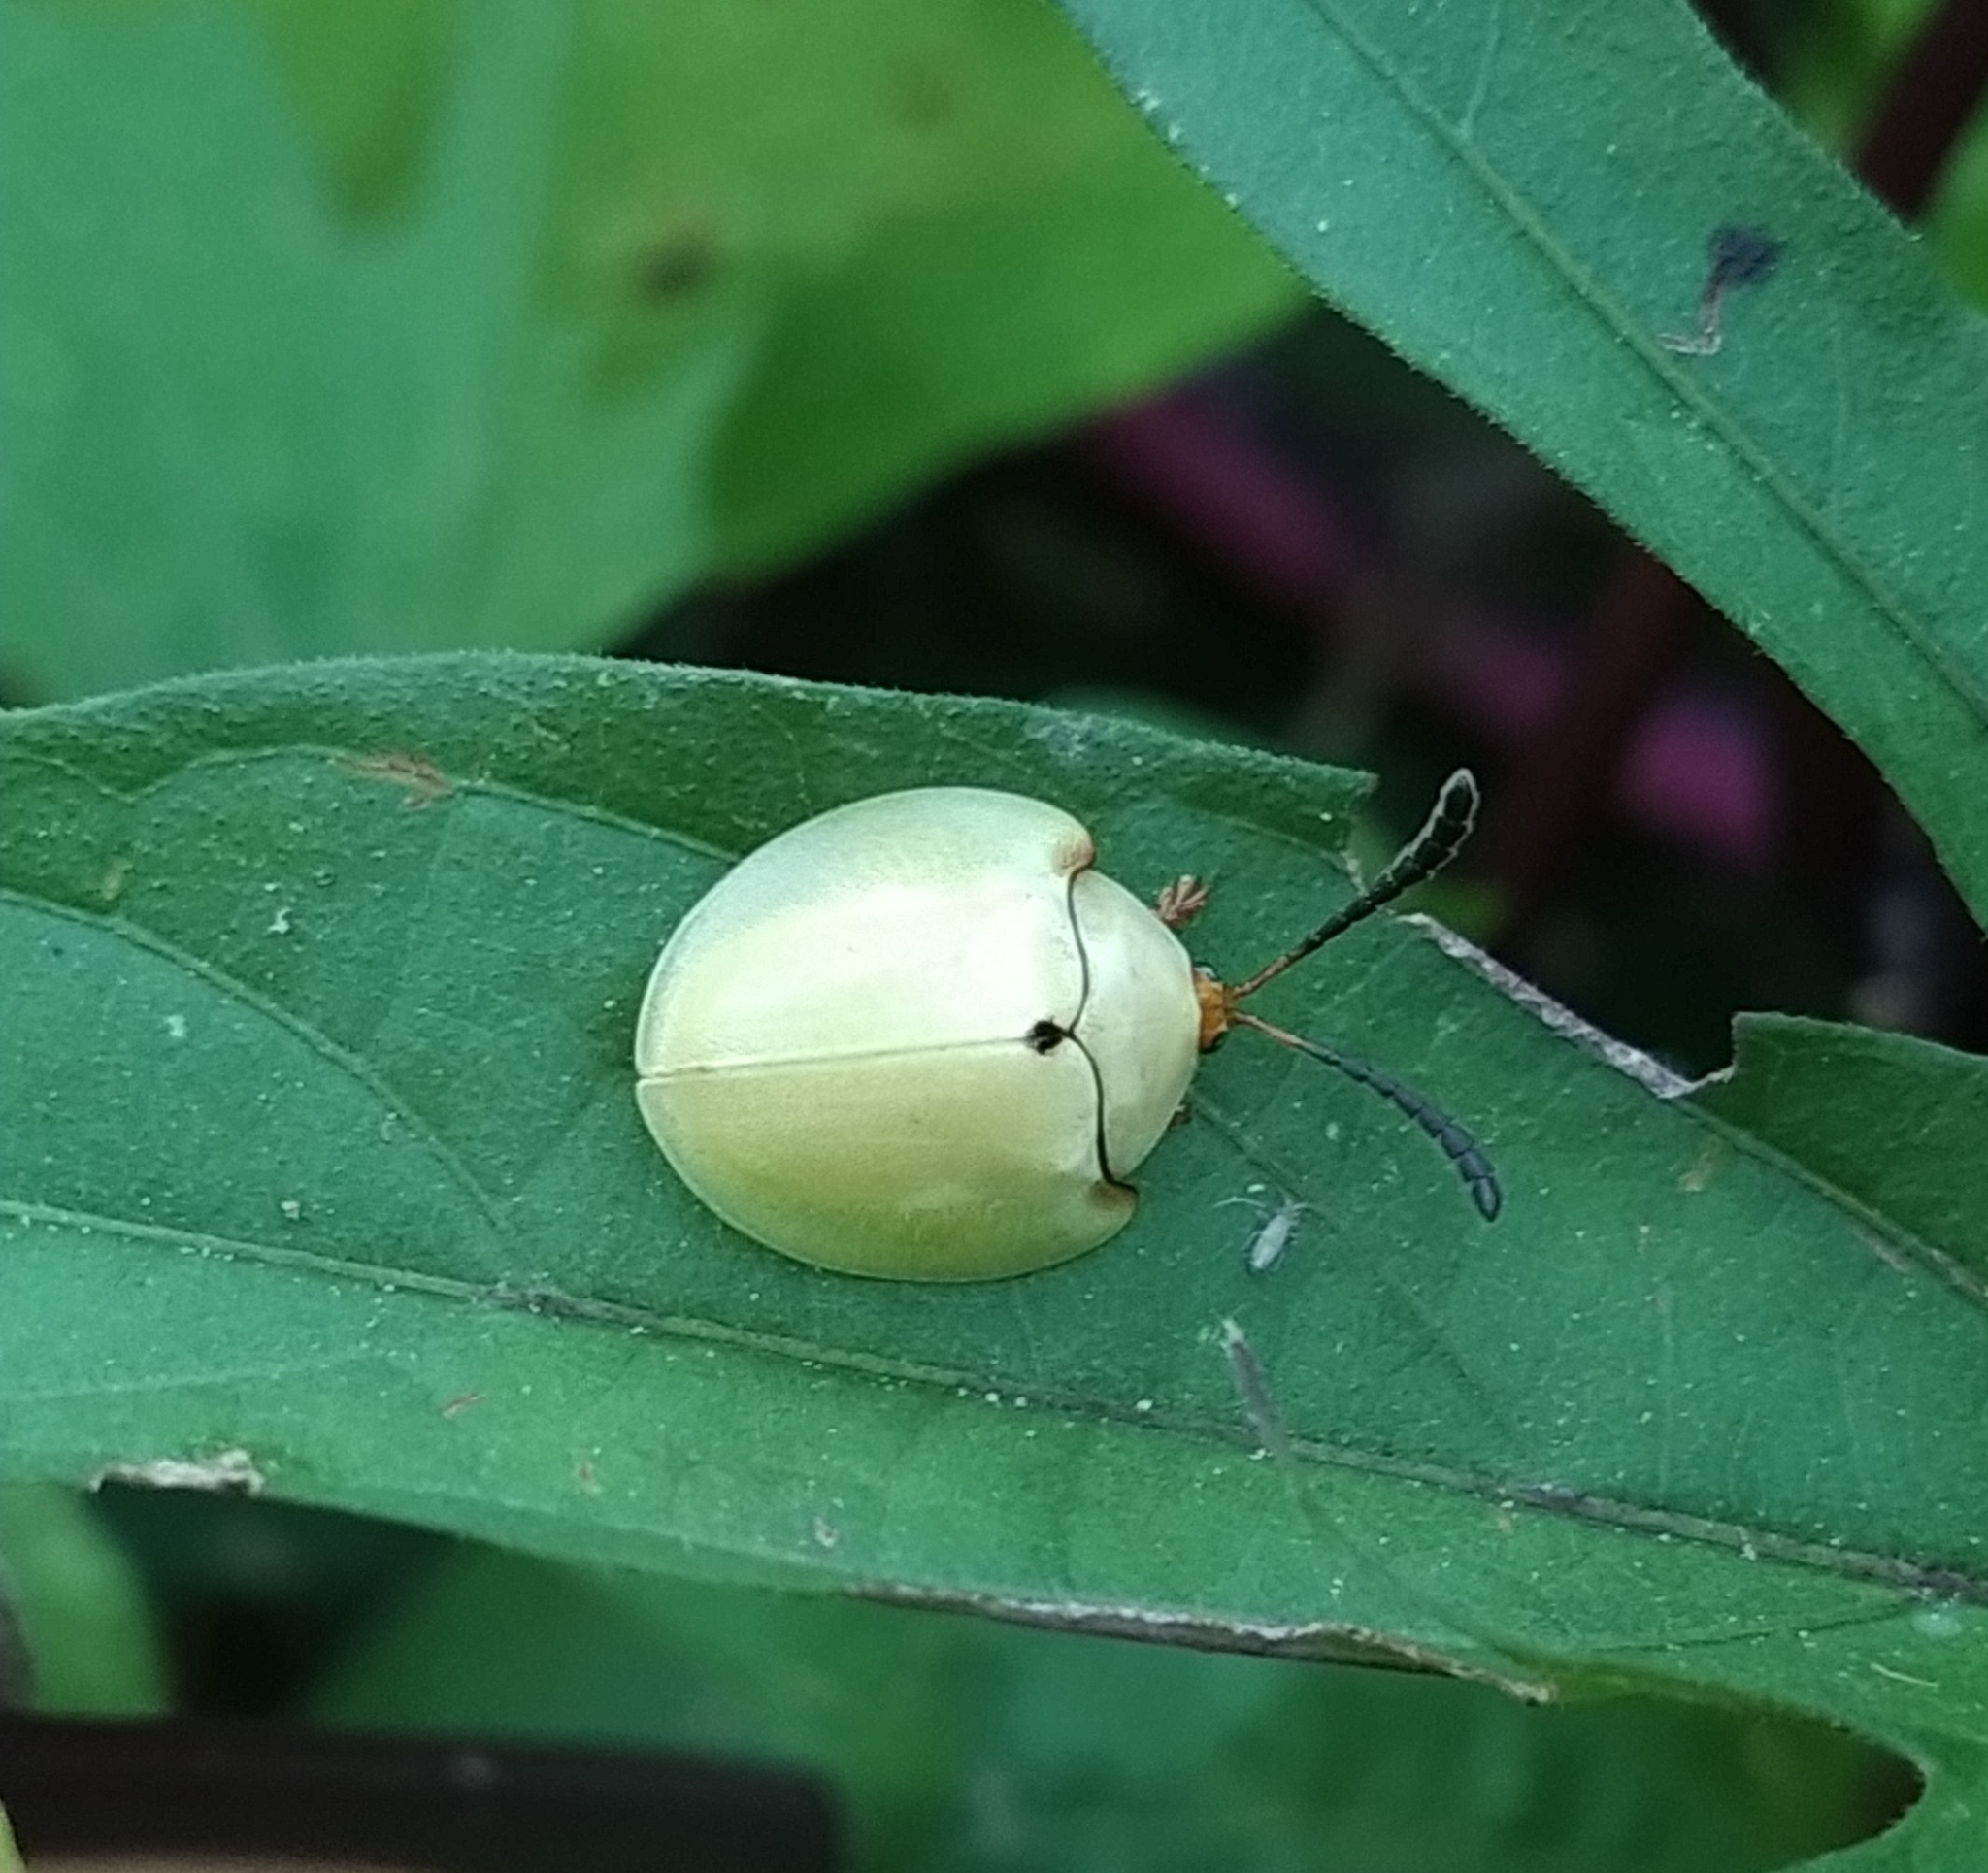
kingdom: Animalia
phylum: Arthropoda
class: Insecta
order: Coleoptera
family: Chrysomelidae
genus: Paraselenis
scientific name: Paraselenis flava
